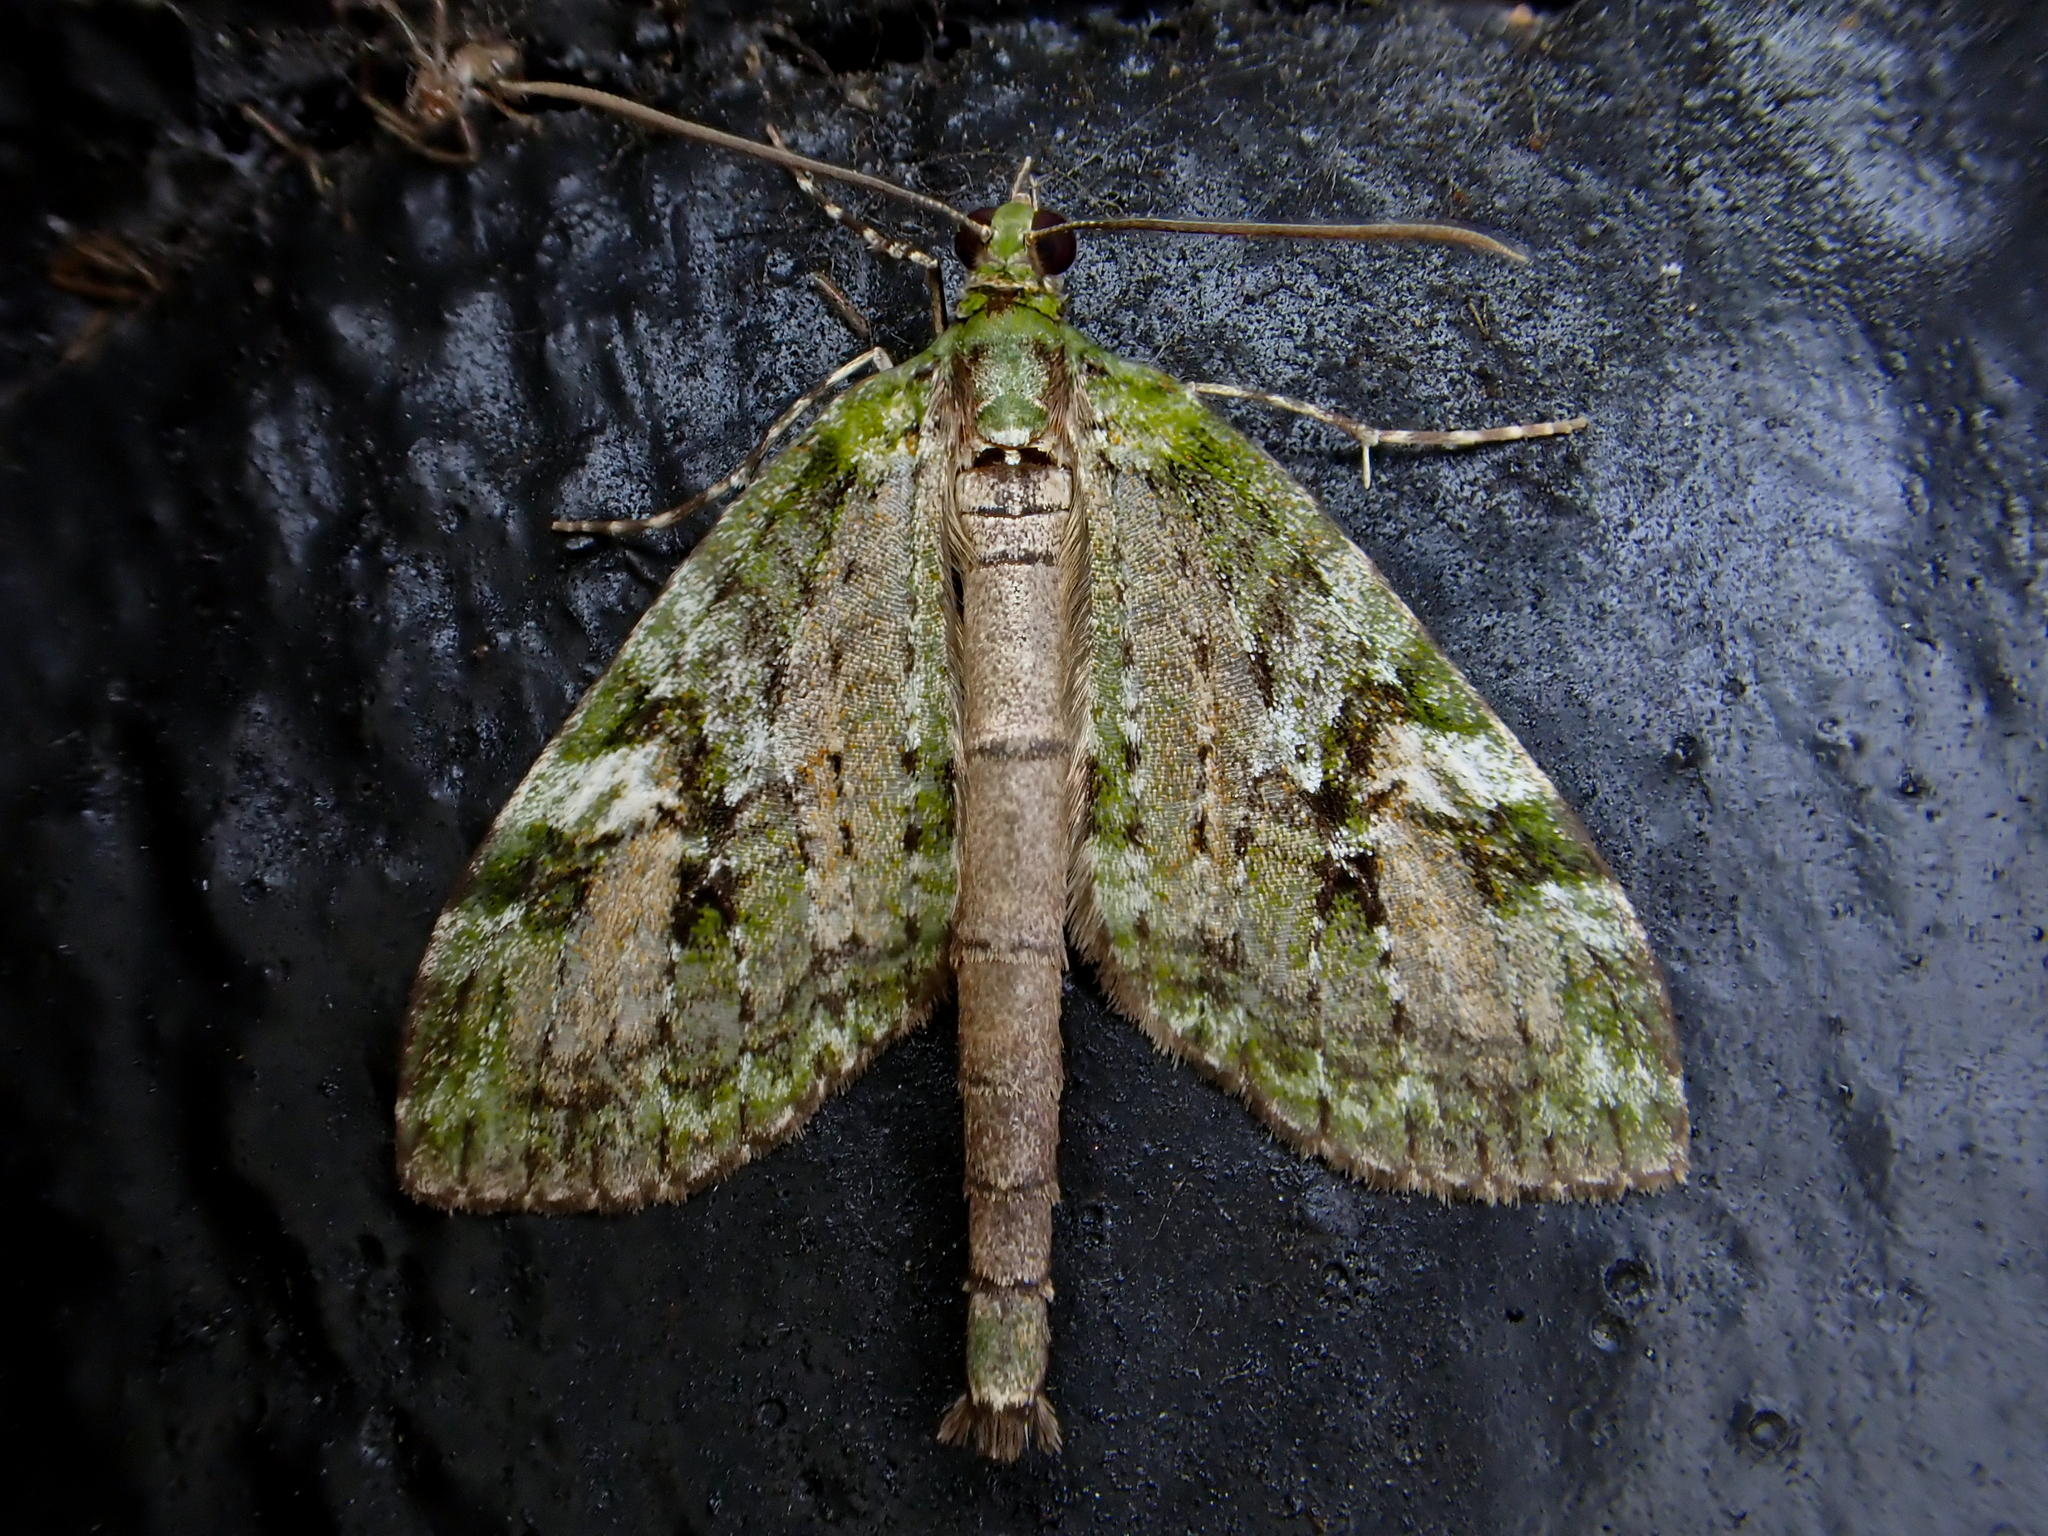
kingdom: Animalia
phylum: Arthropoda
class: Insecta
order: Lepidoptera
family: Geometridae
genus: Tatosoma
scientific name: Tatosoma topea
